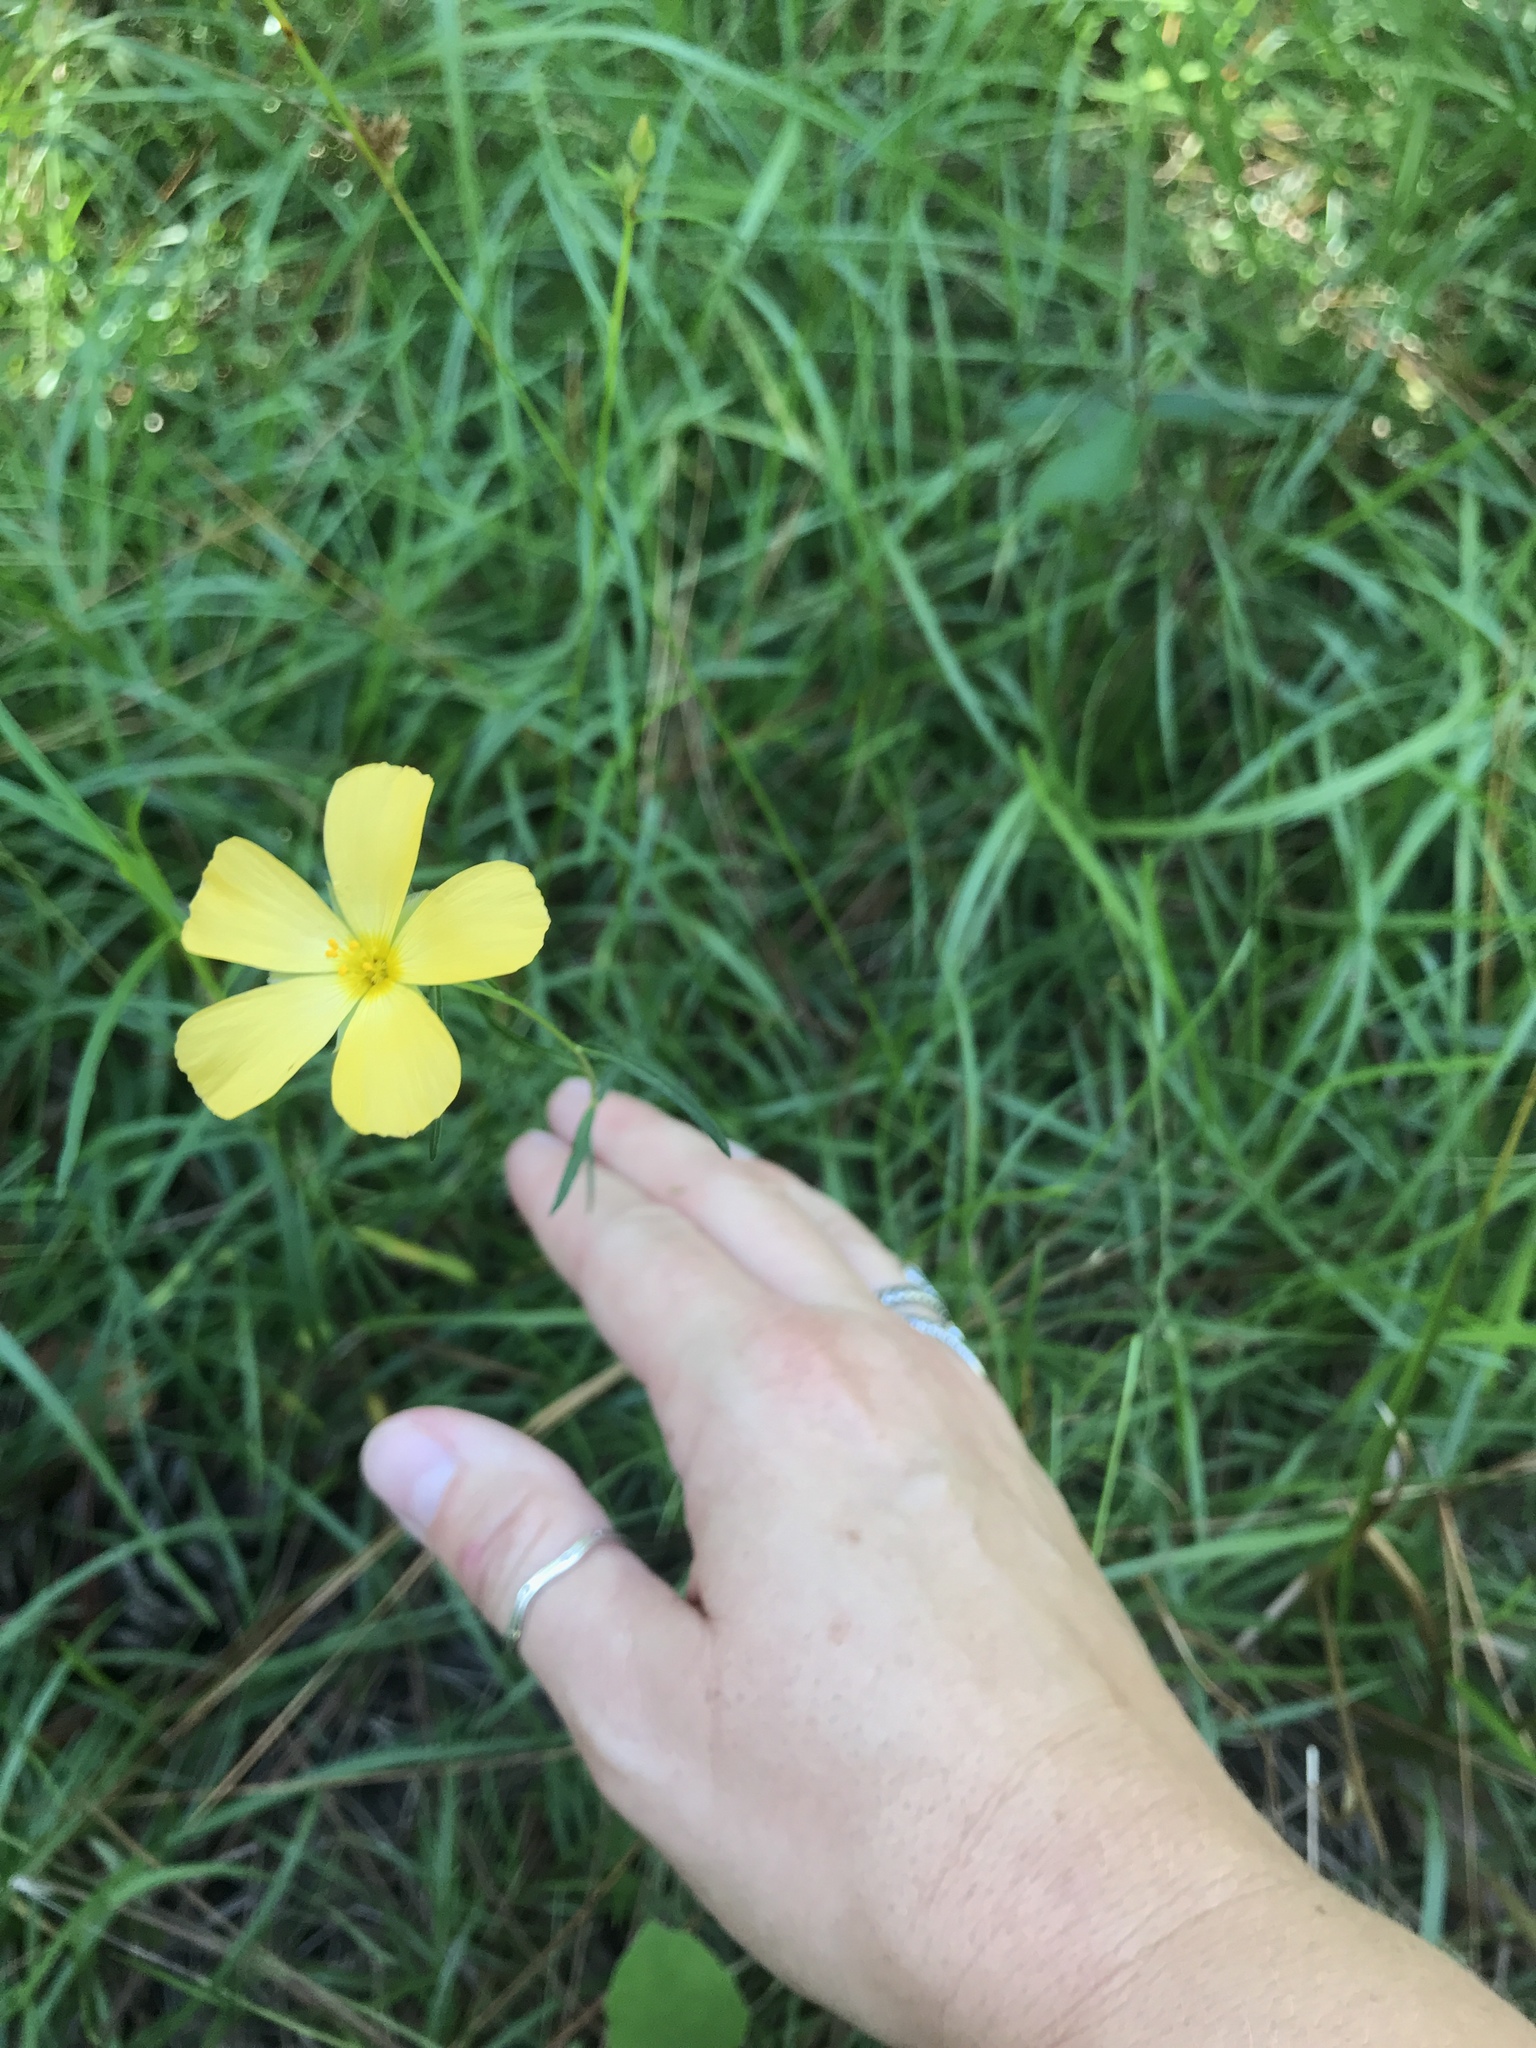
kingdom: Plantae
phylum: Tracheophyta
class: Magnoliopsida
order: Malpighiales
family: Turneraceae
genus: Piriqueta
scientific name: Piriqueta cistoides
